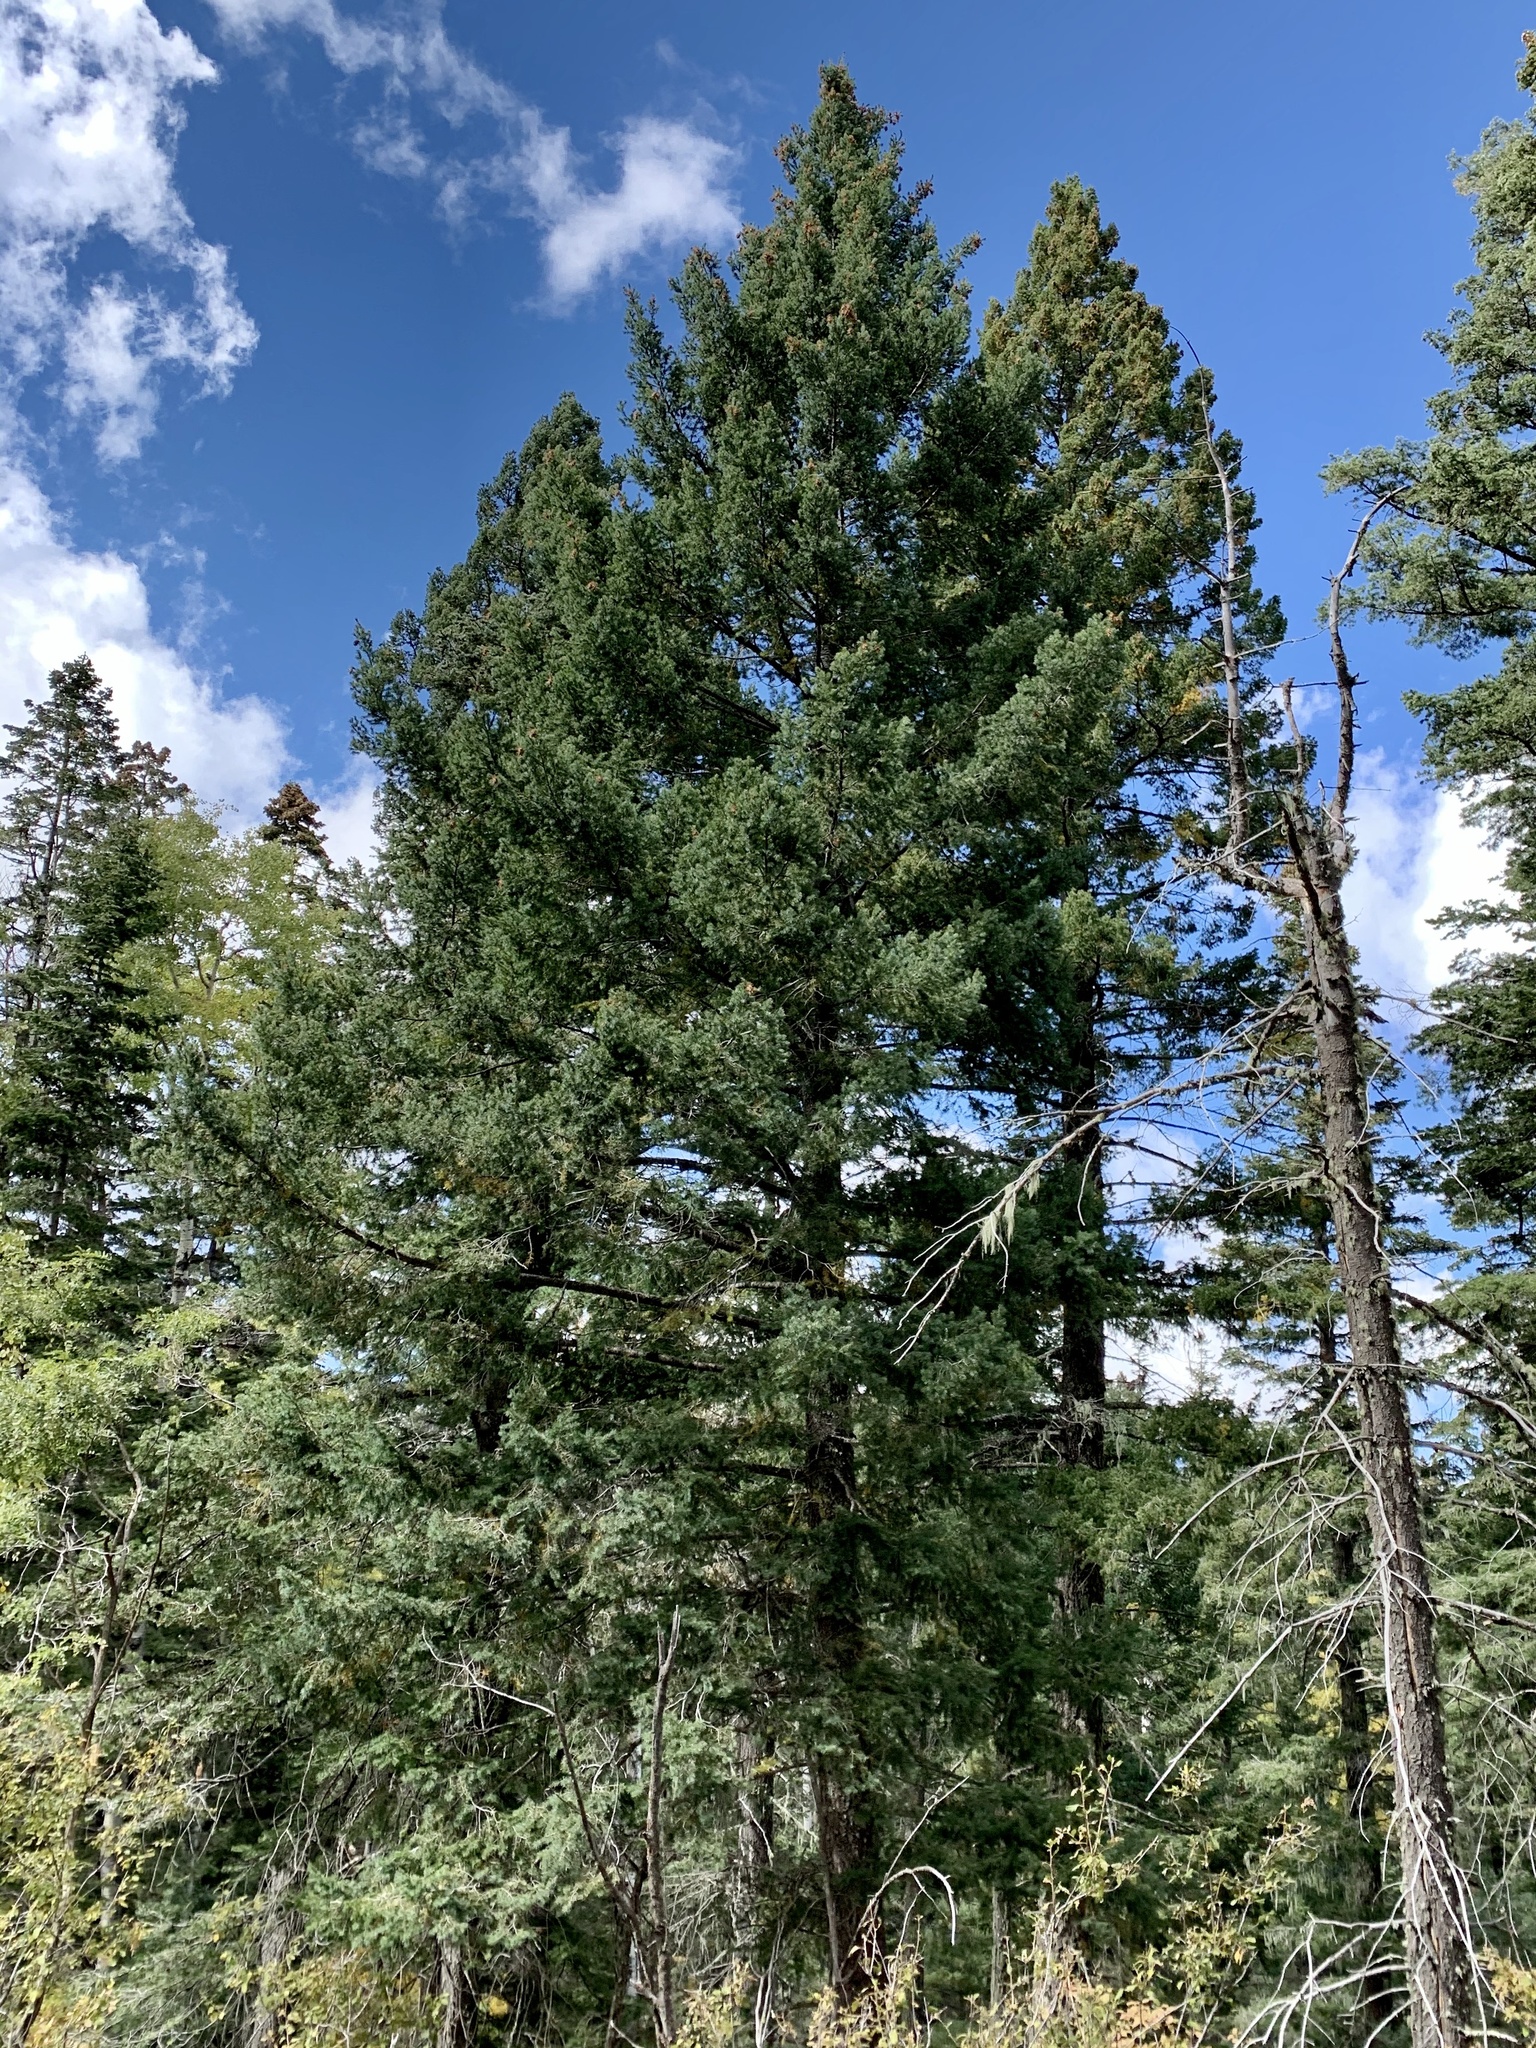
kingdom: Plantae
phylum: Tracheophyta
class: Pinopsida
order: Pinales
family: Pinaceae
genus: Pseudotsuga
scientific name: Pseudotsuga menziesii
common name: Douglas fir
